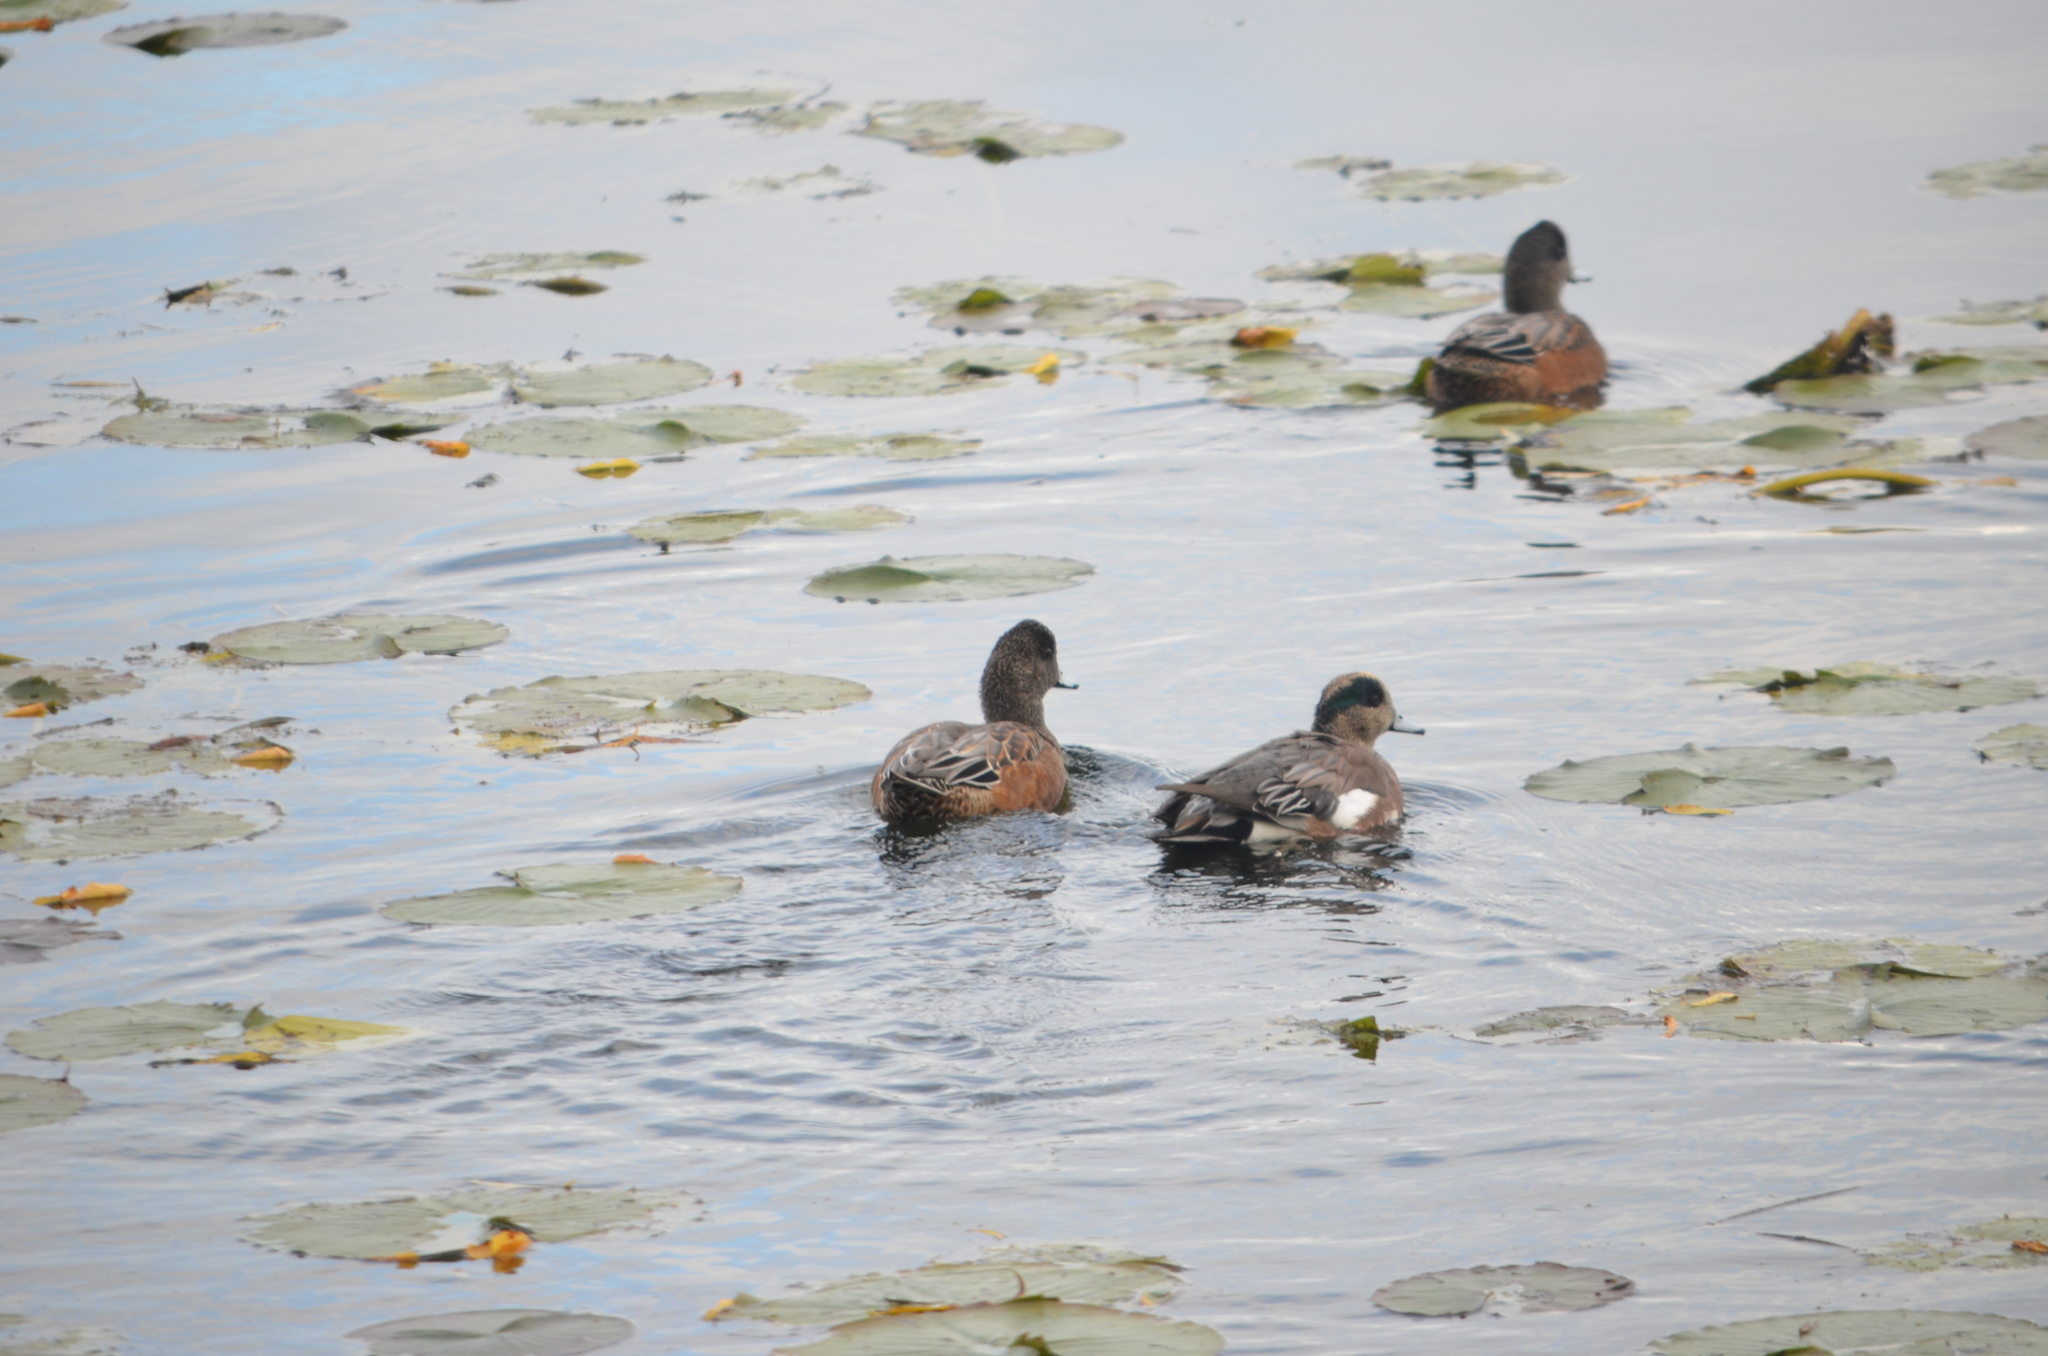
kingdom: Animalia
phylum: Chordata
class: Aves
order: Anseriformes
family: Anatidae
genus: Mareca
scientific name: Mareca americana
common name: American wigeon
